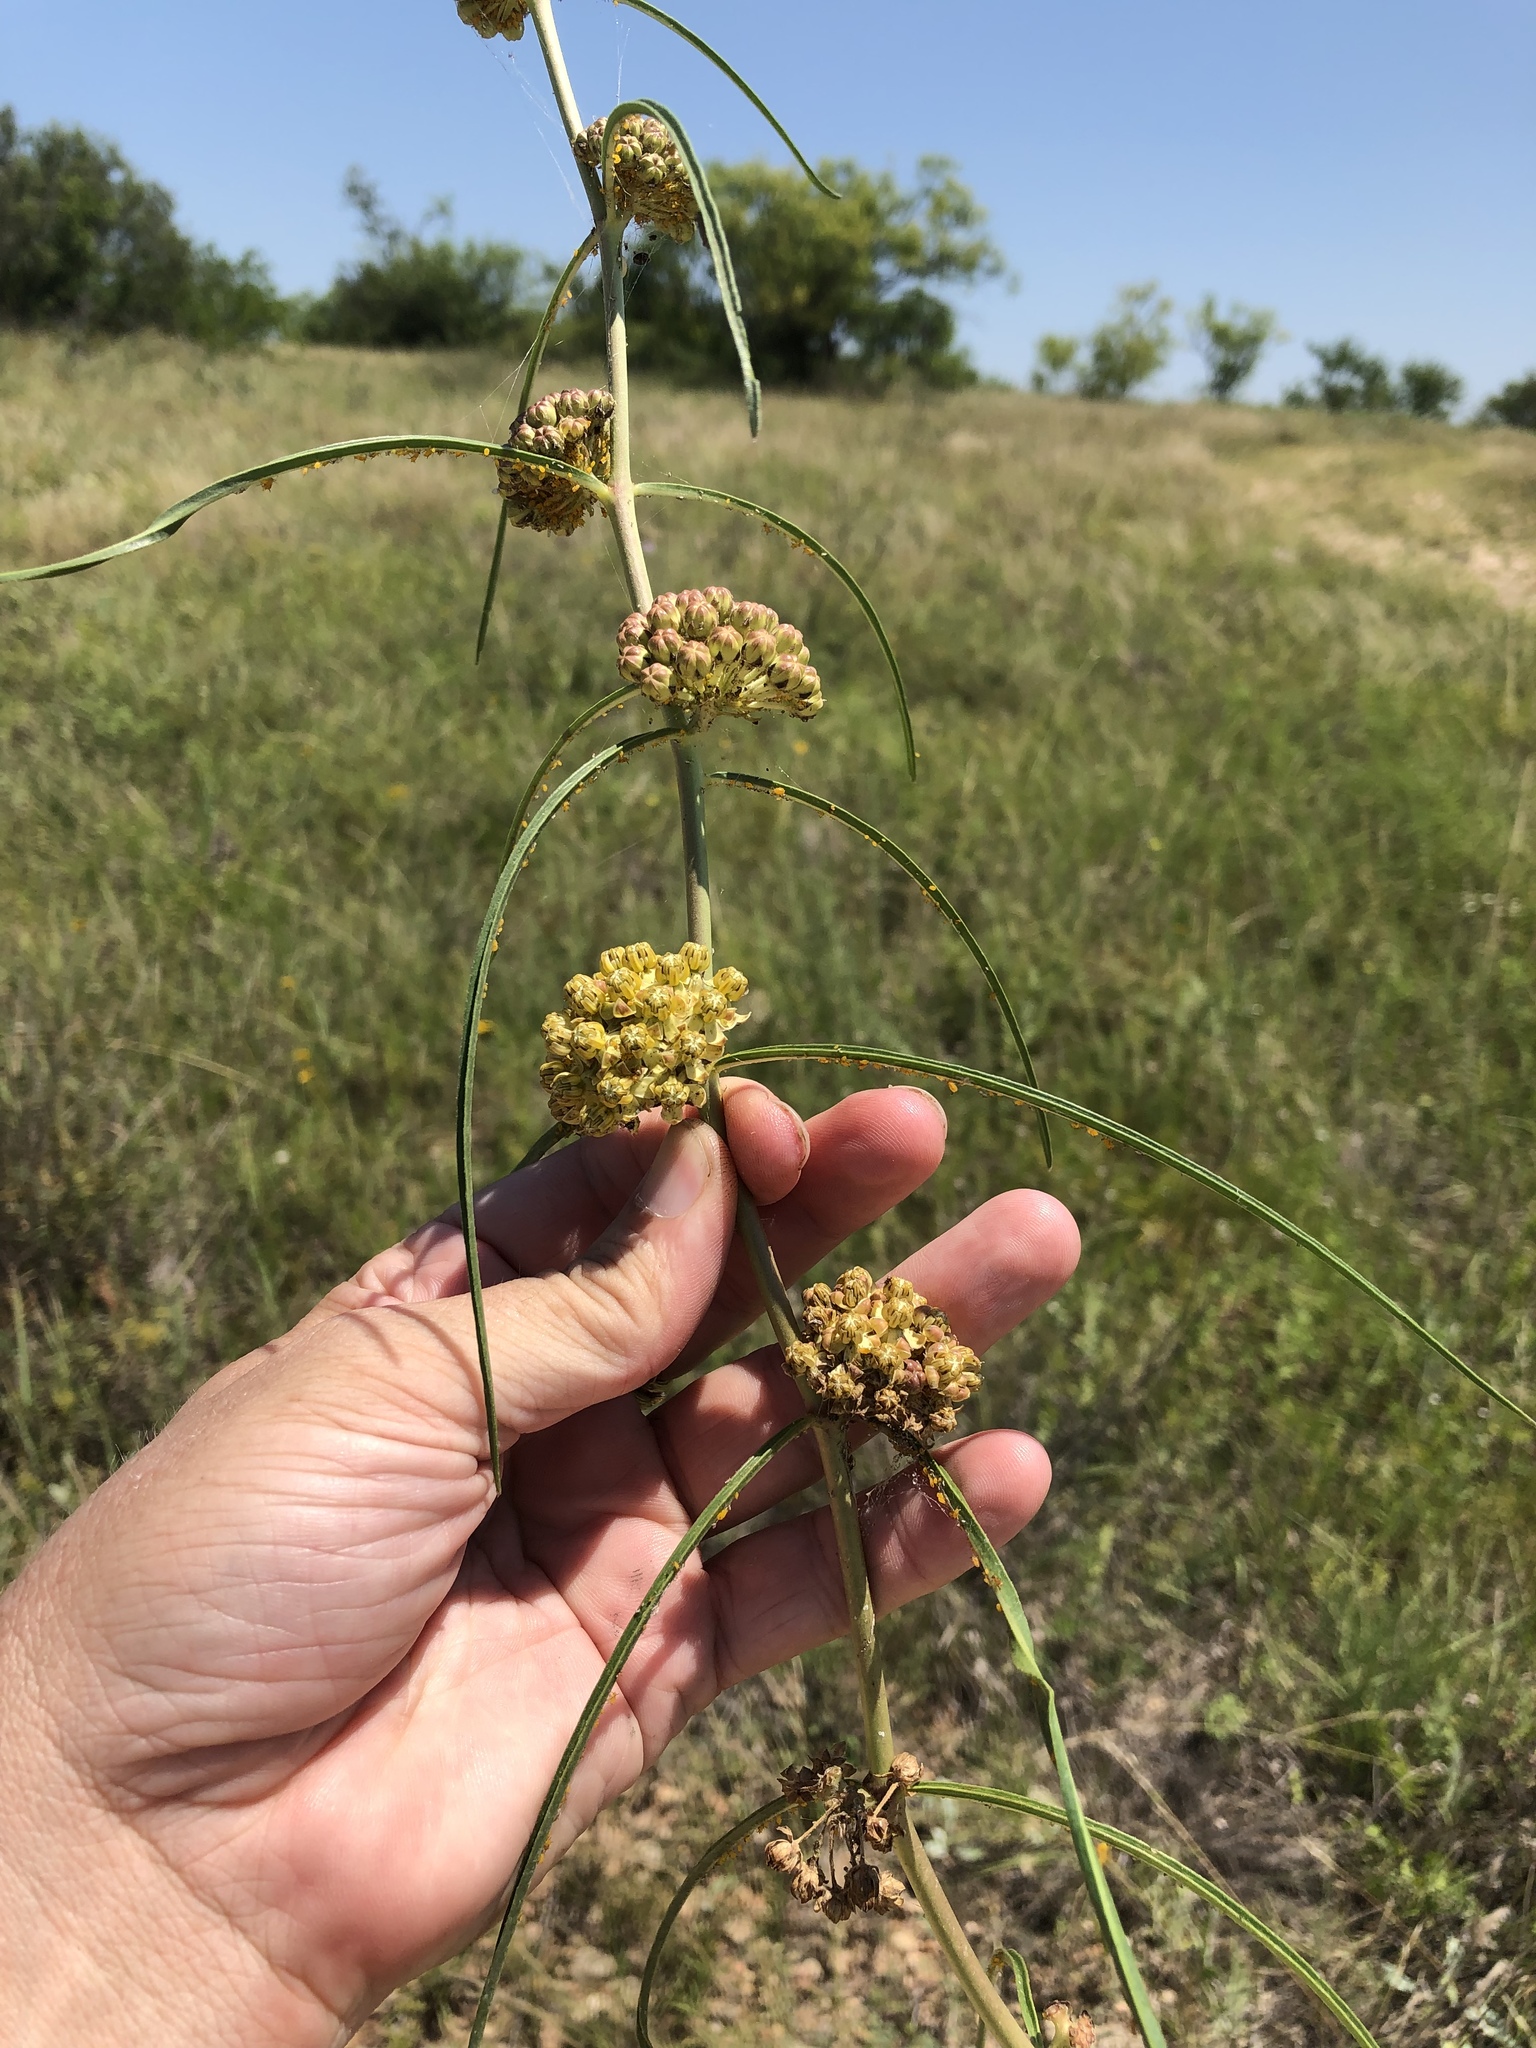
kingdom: Plantae
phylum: Tracheophyta
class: Magnoliopsida
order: Gentianales
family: Apocynaceae
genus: Asclepias
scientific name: Asclepias engelmanniana
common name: Engelmann's milkweed
